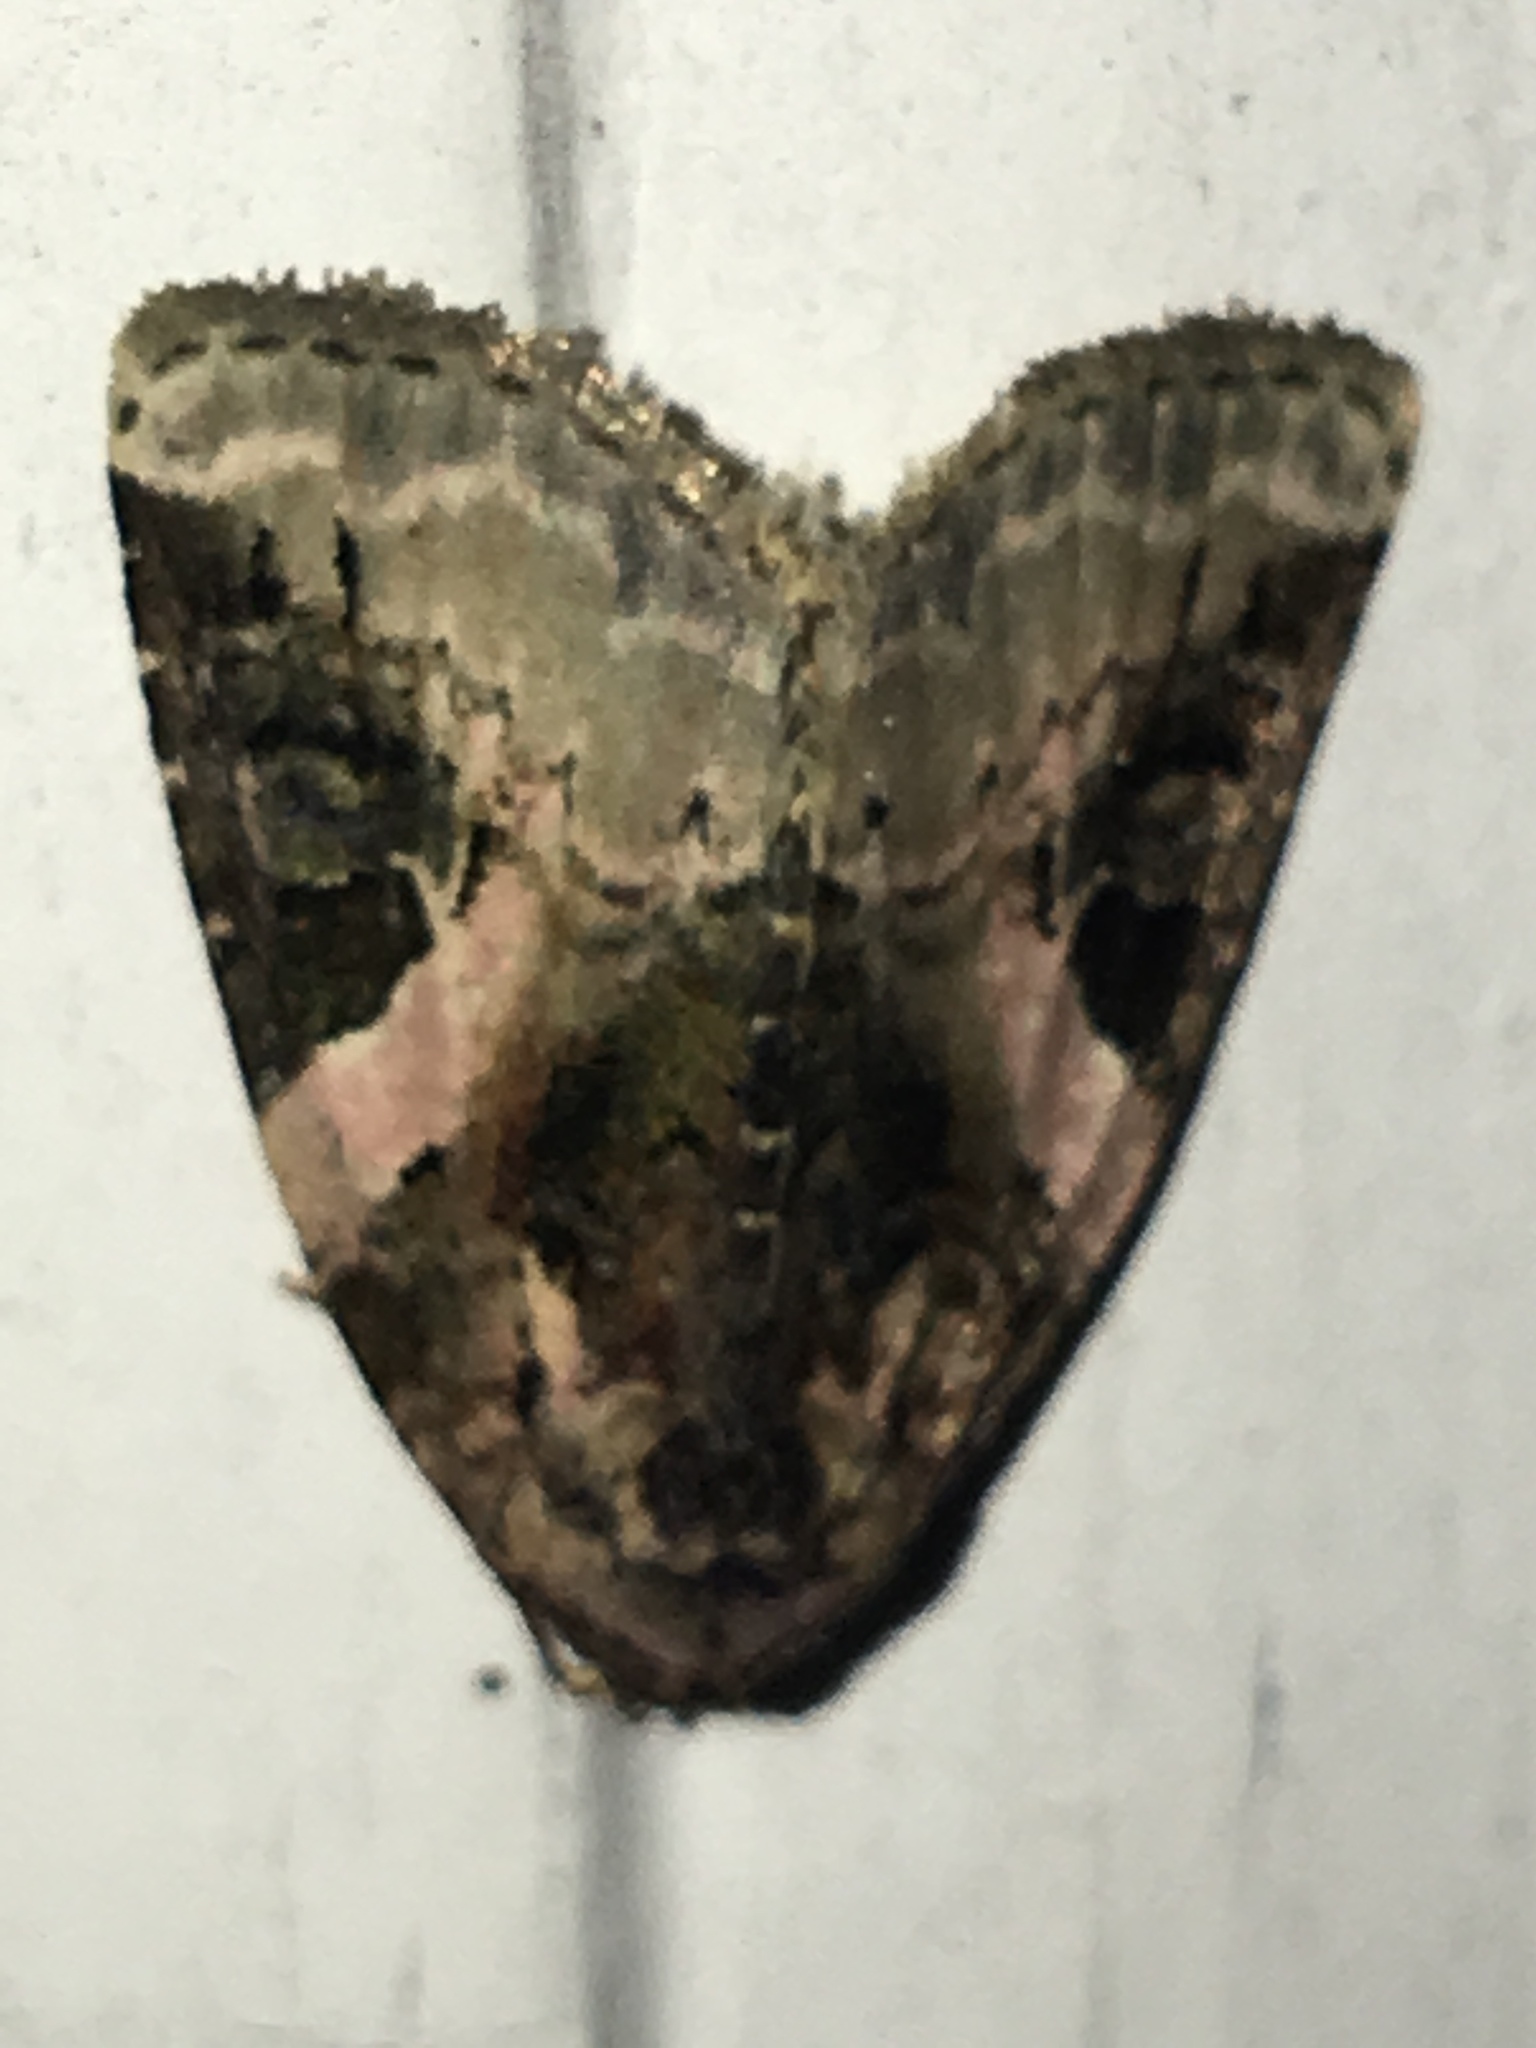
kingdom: Animalia
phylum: Arthropoda
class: Insecta
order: Lepidoptera
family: Noctuidae
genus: Pseudeustrotia
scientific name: Pseudeustrotia carneola
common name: Pink-barred lithacodia moth
